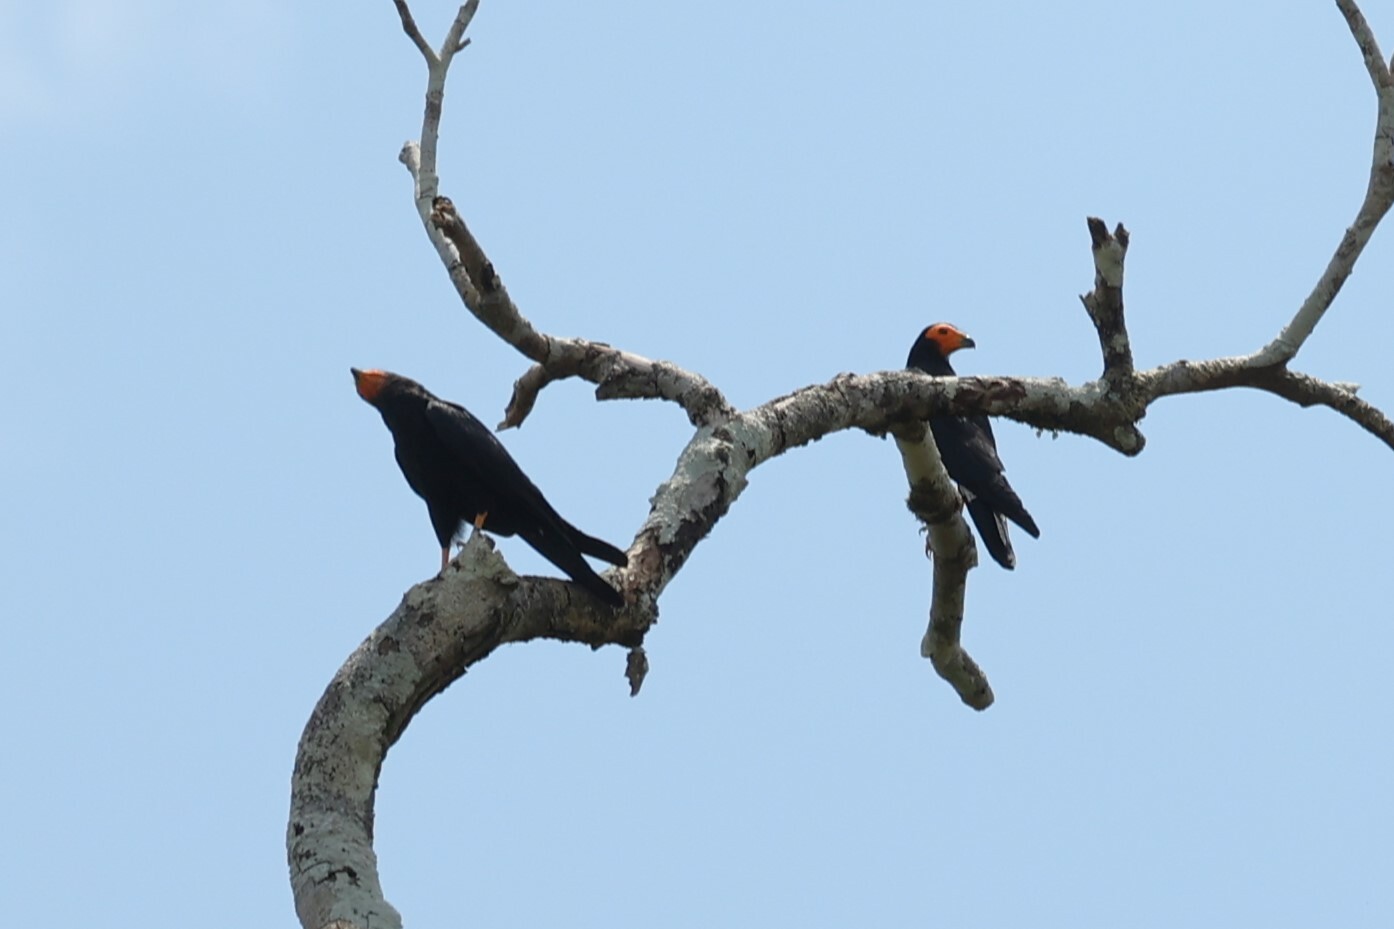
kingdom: Animalia
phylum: Chordata
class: Aves
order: Falconiformes
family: Falconidae
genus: Daptrius
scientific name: Daptrius ater
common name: Black caracara
